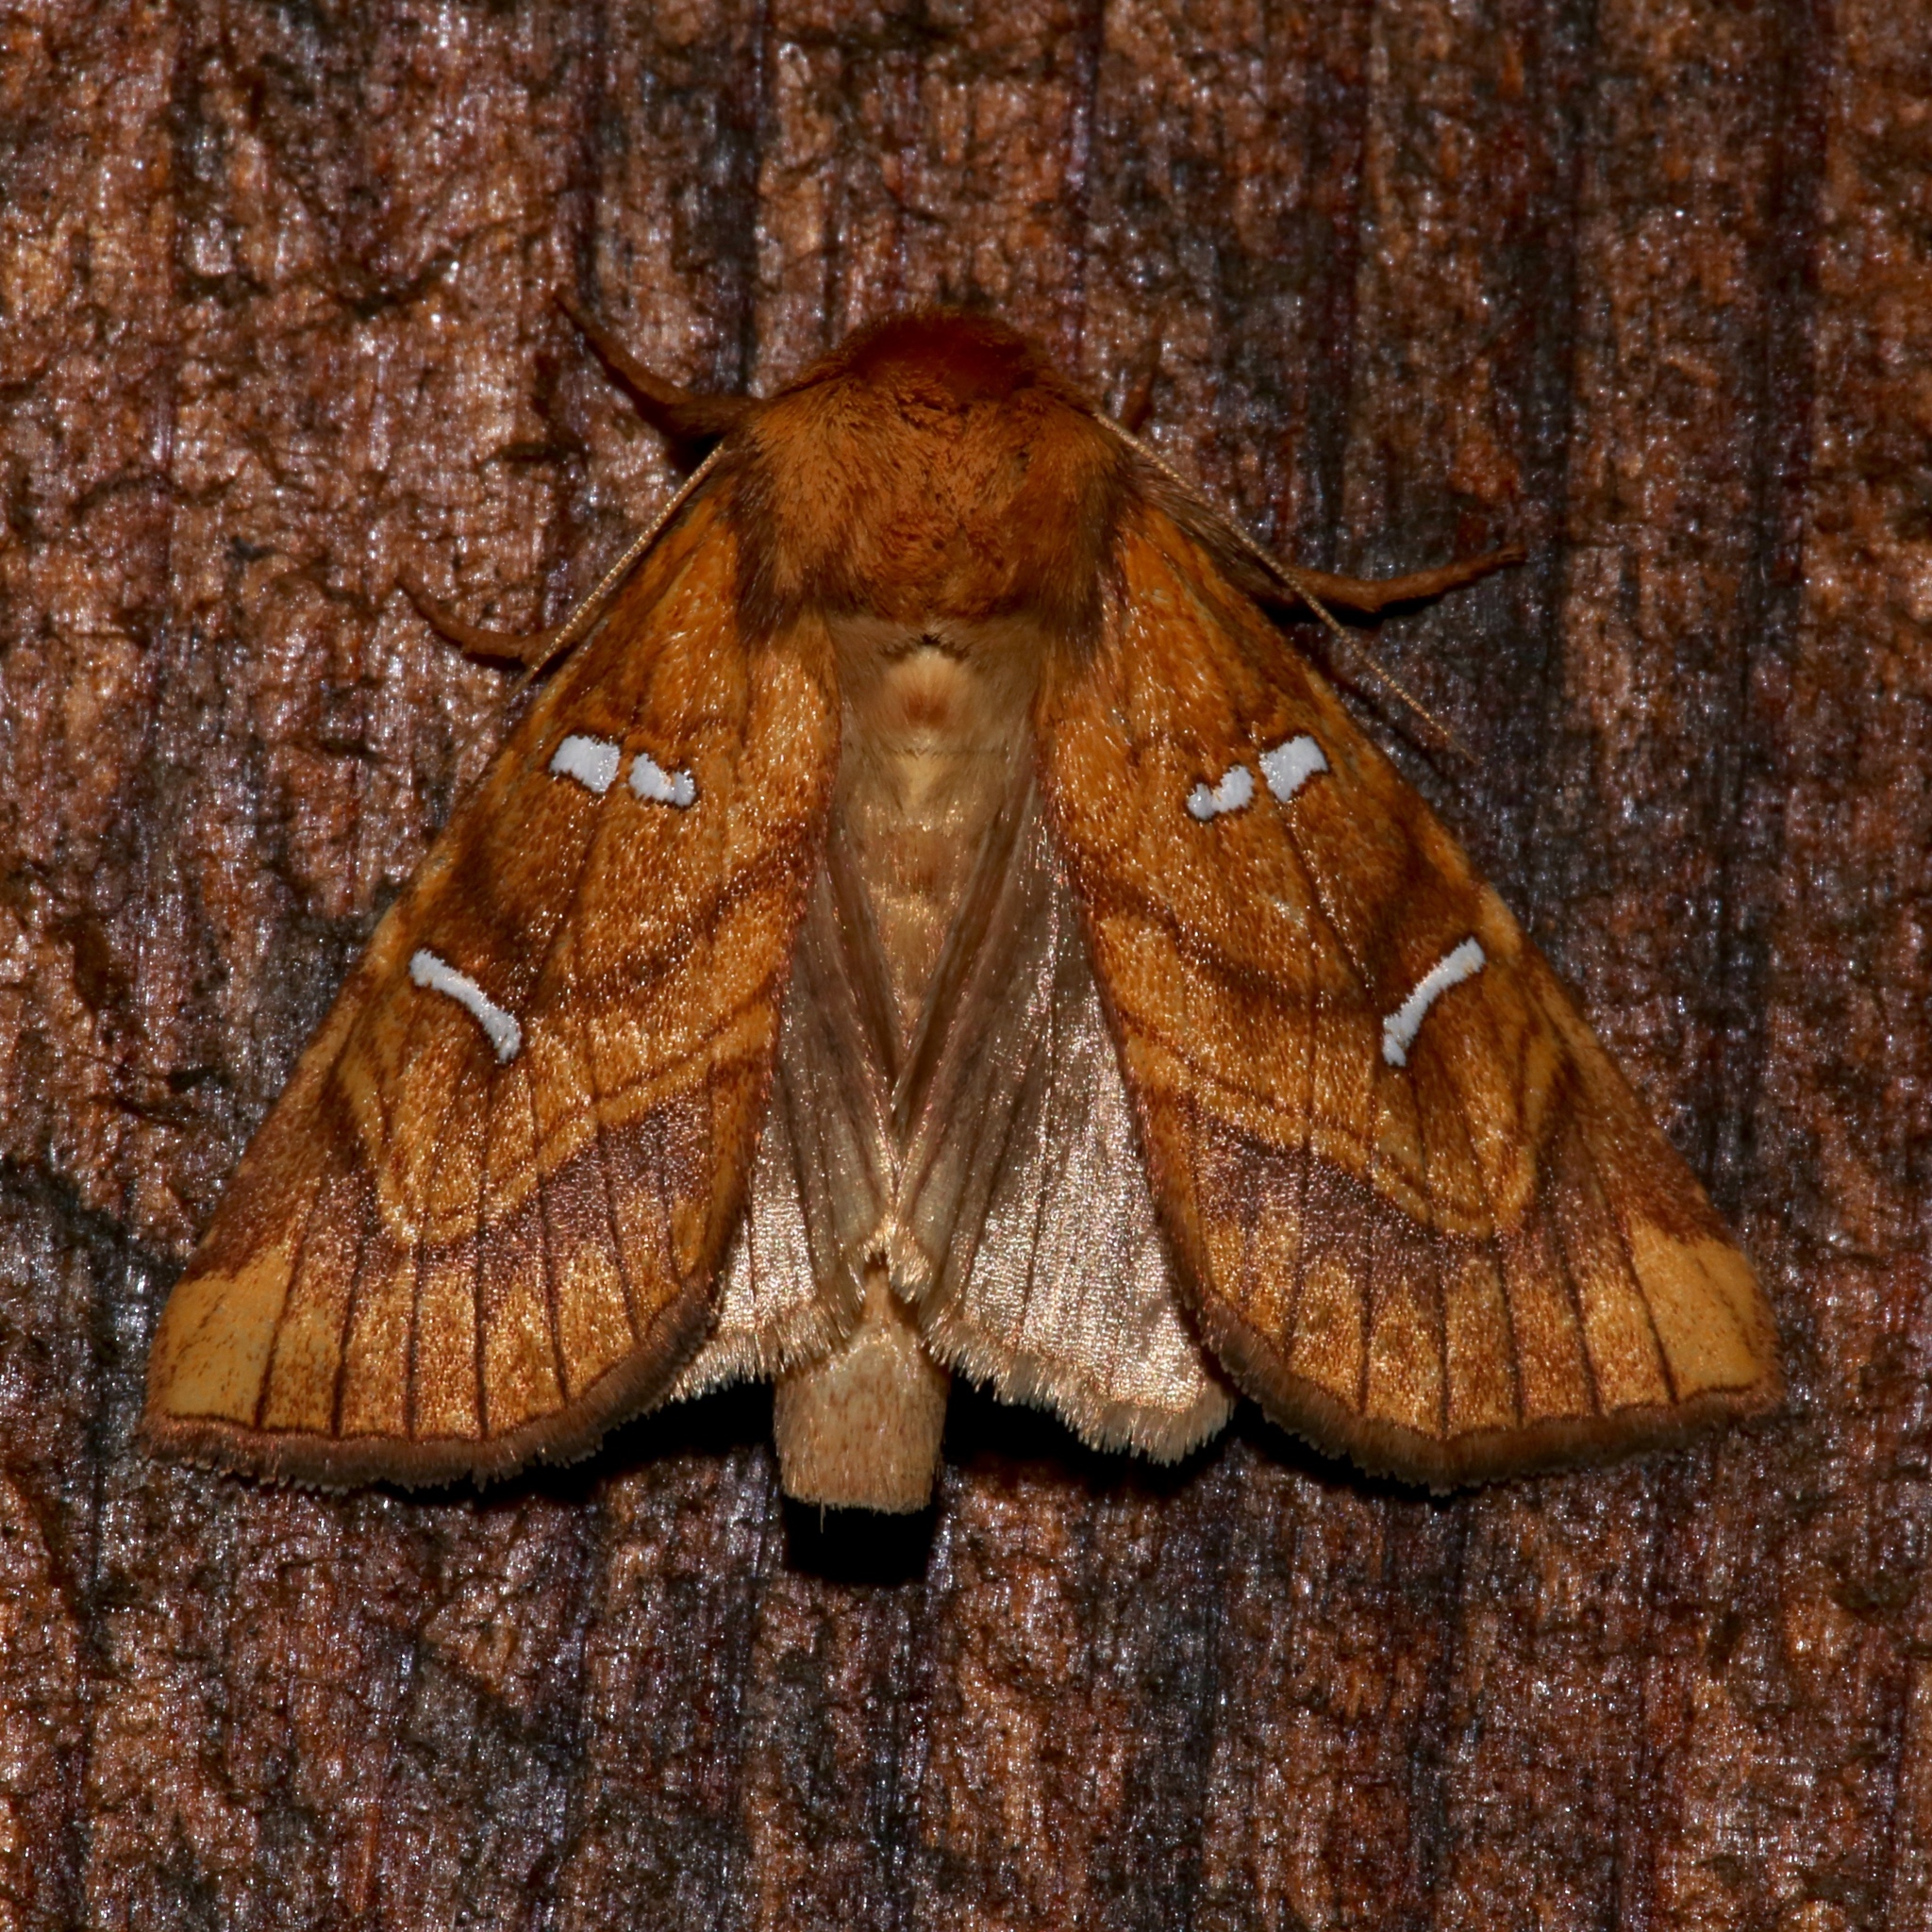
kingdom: Animalia
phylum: Arthropoda
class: Insecta
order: Lepidoptera
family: Noctuidae
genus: Papaipema
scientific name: Papaipema speciosissima
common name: Osmunda borer moth
